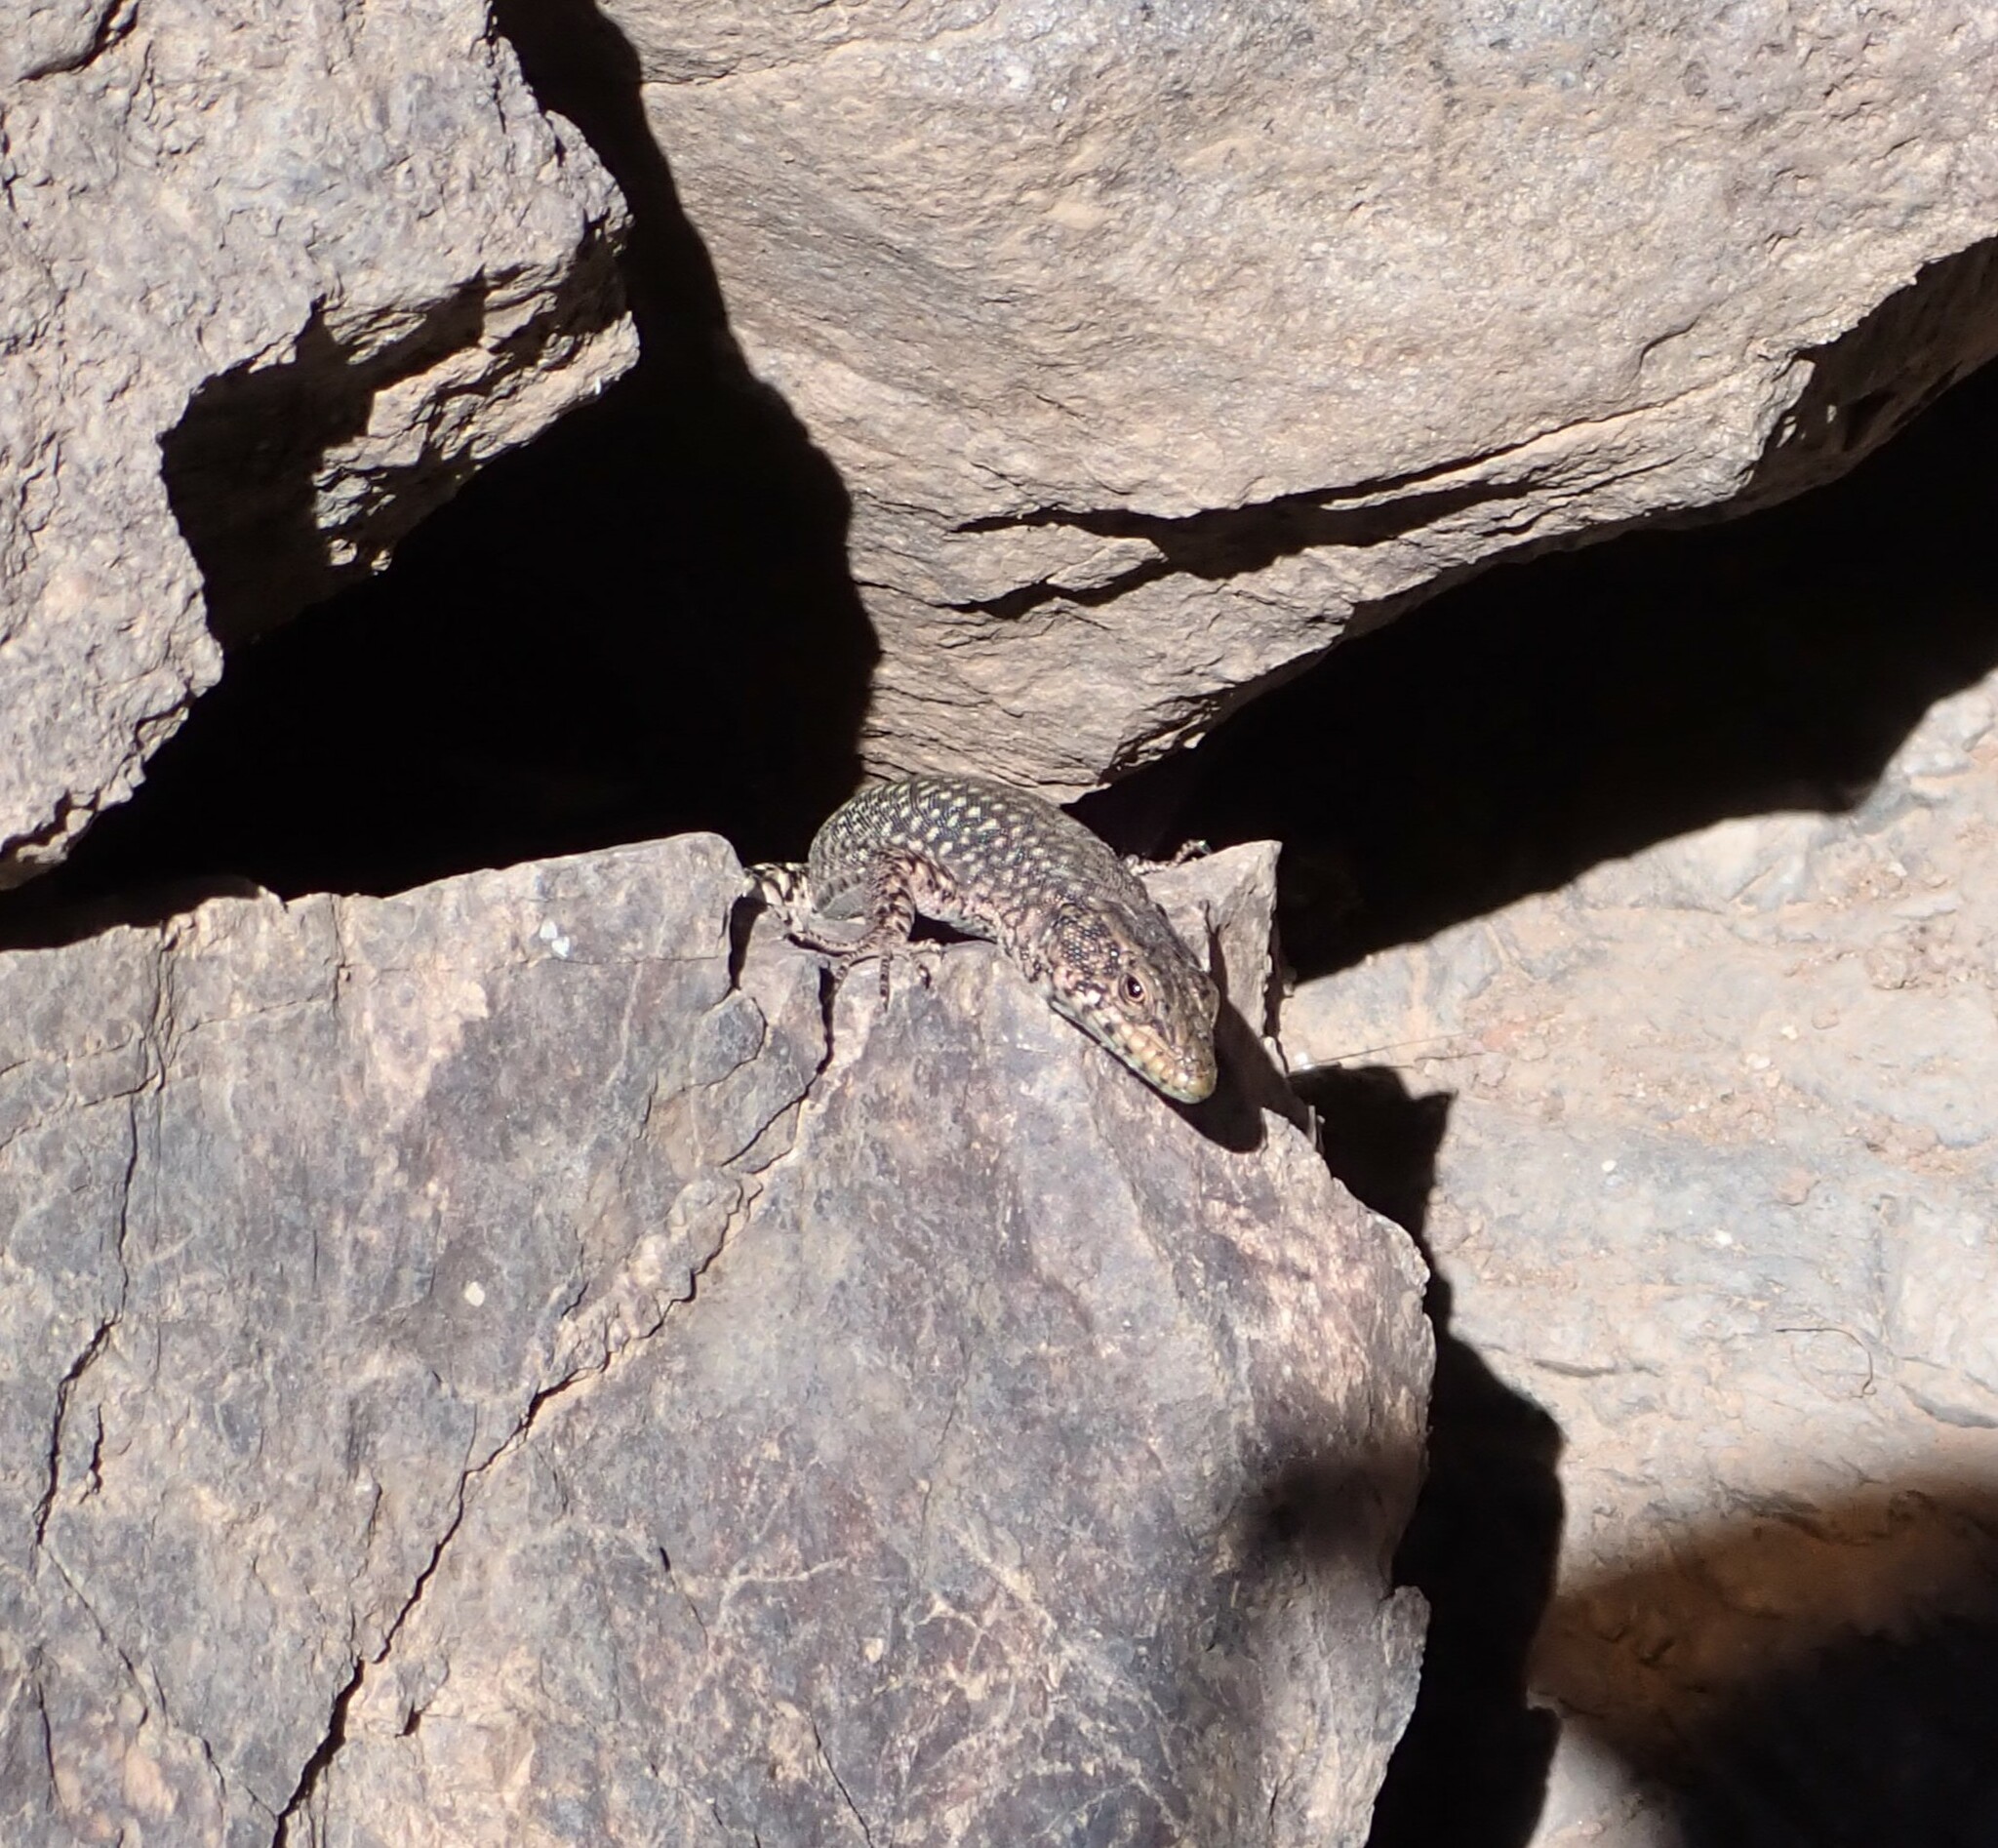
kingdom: Animalia
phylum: Chordata
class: Squamata
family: Lacertidae
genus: Scelarcis
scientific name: Scelarcis perspicillata
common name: Moroccan rock lizard
